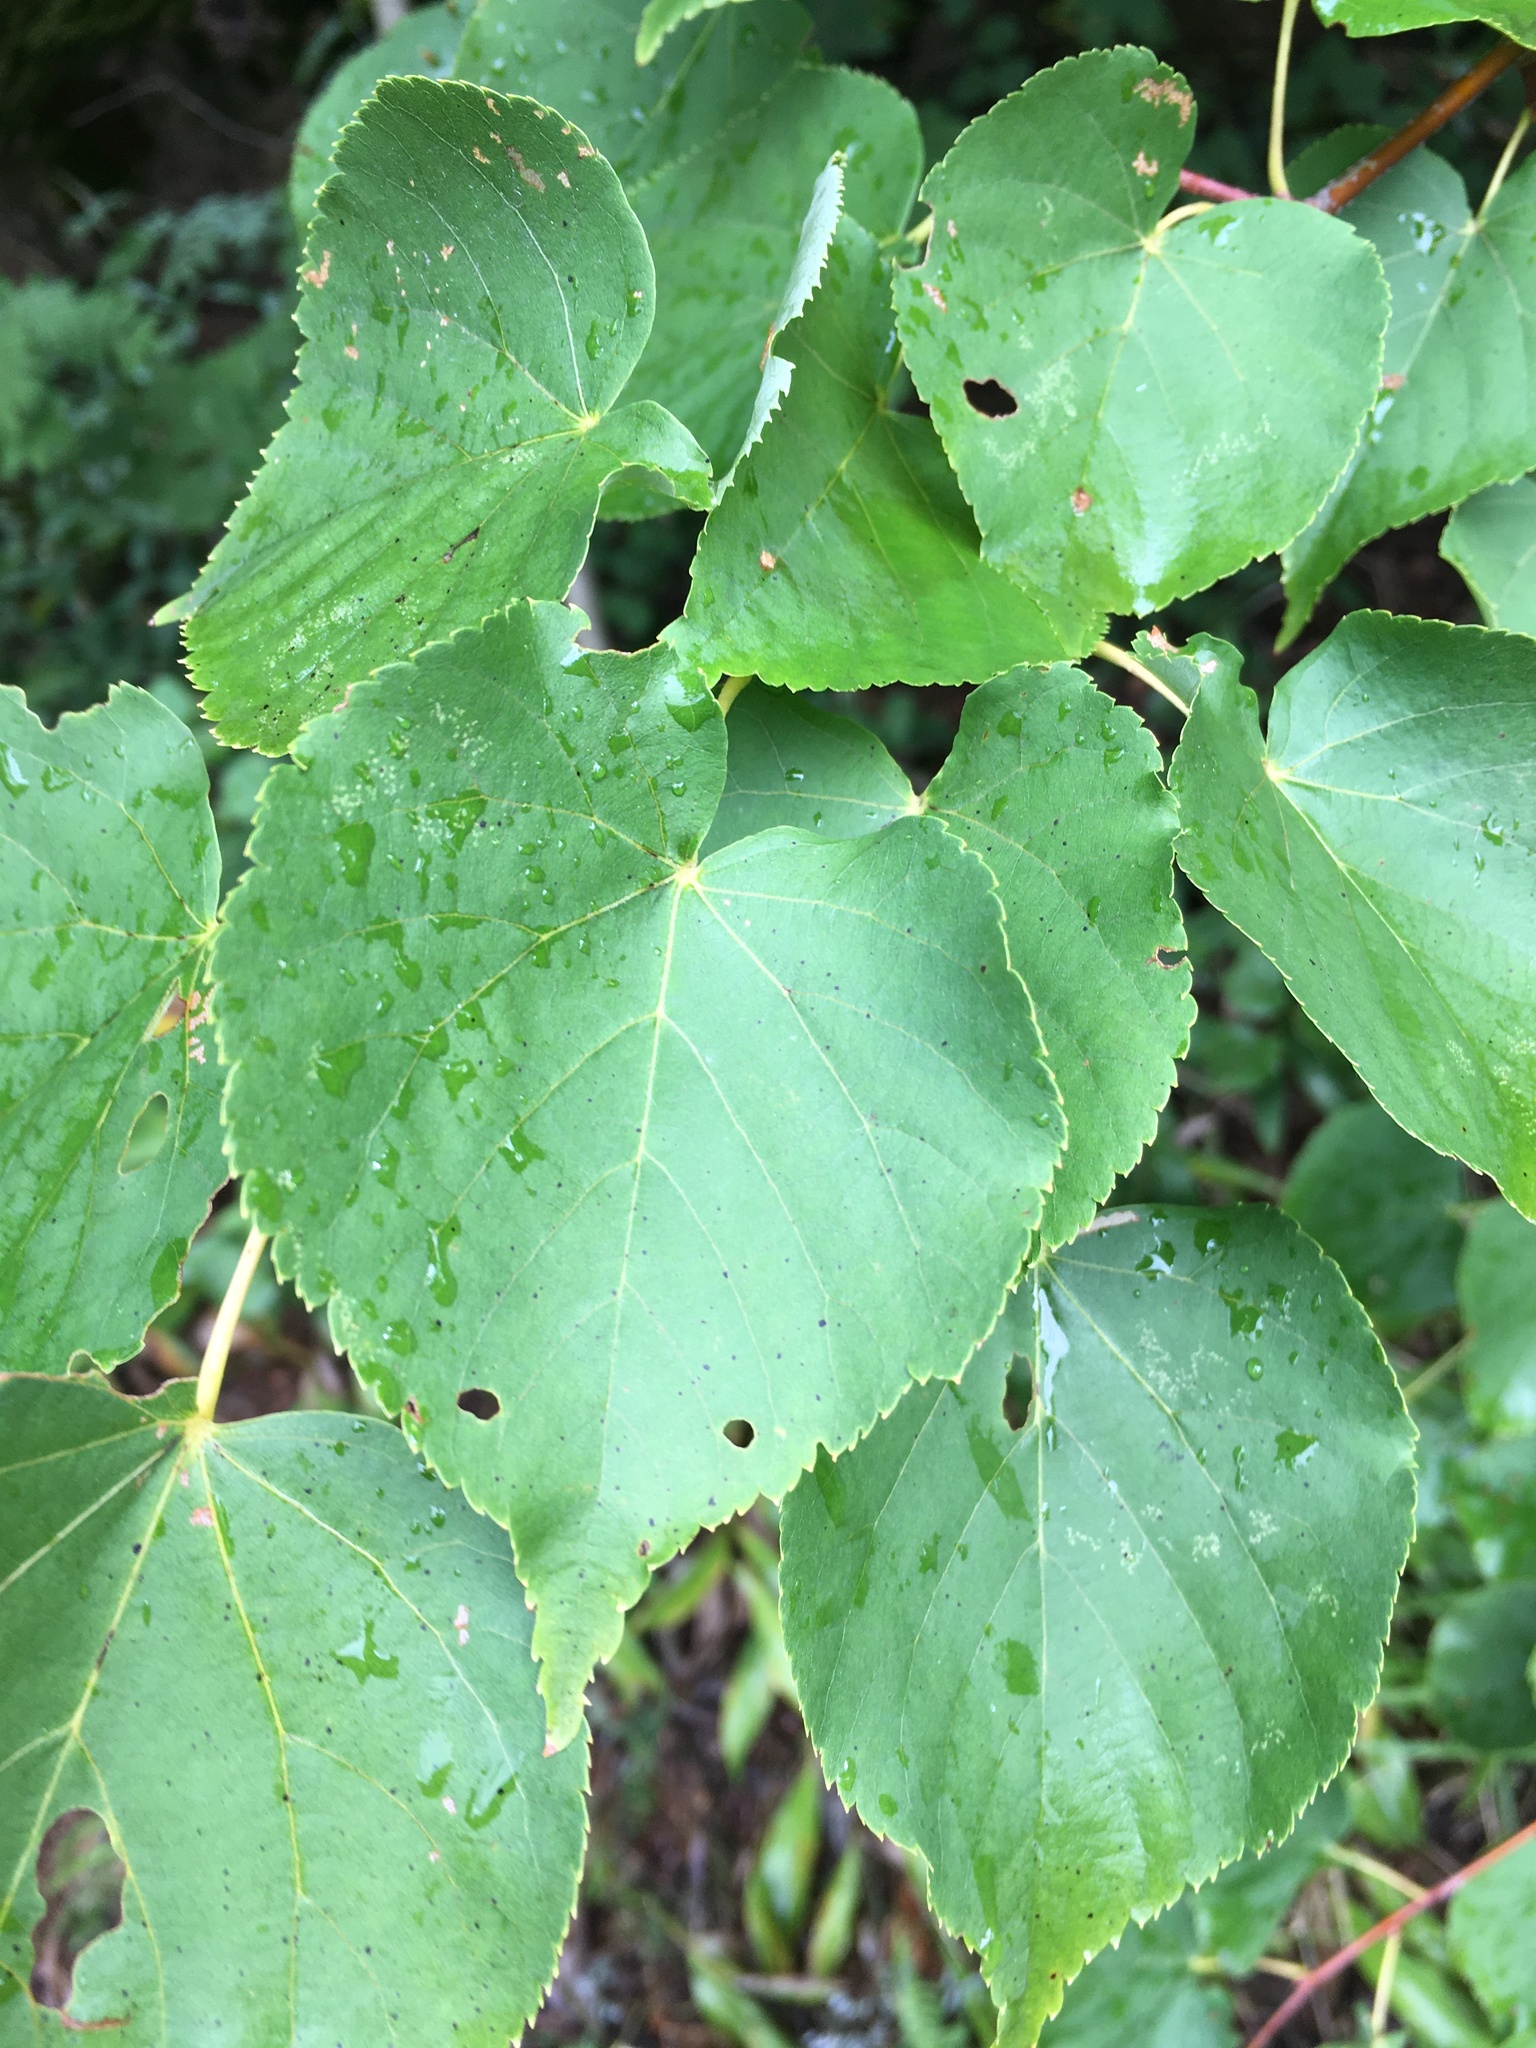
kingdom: Plantae
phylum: Tracheophyta
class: Magnoliopsida
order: Malvales
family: Malvaceae
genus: Tilia
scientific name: Tilia cordata
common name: Small-leaved lime
